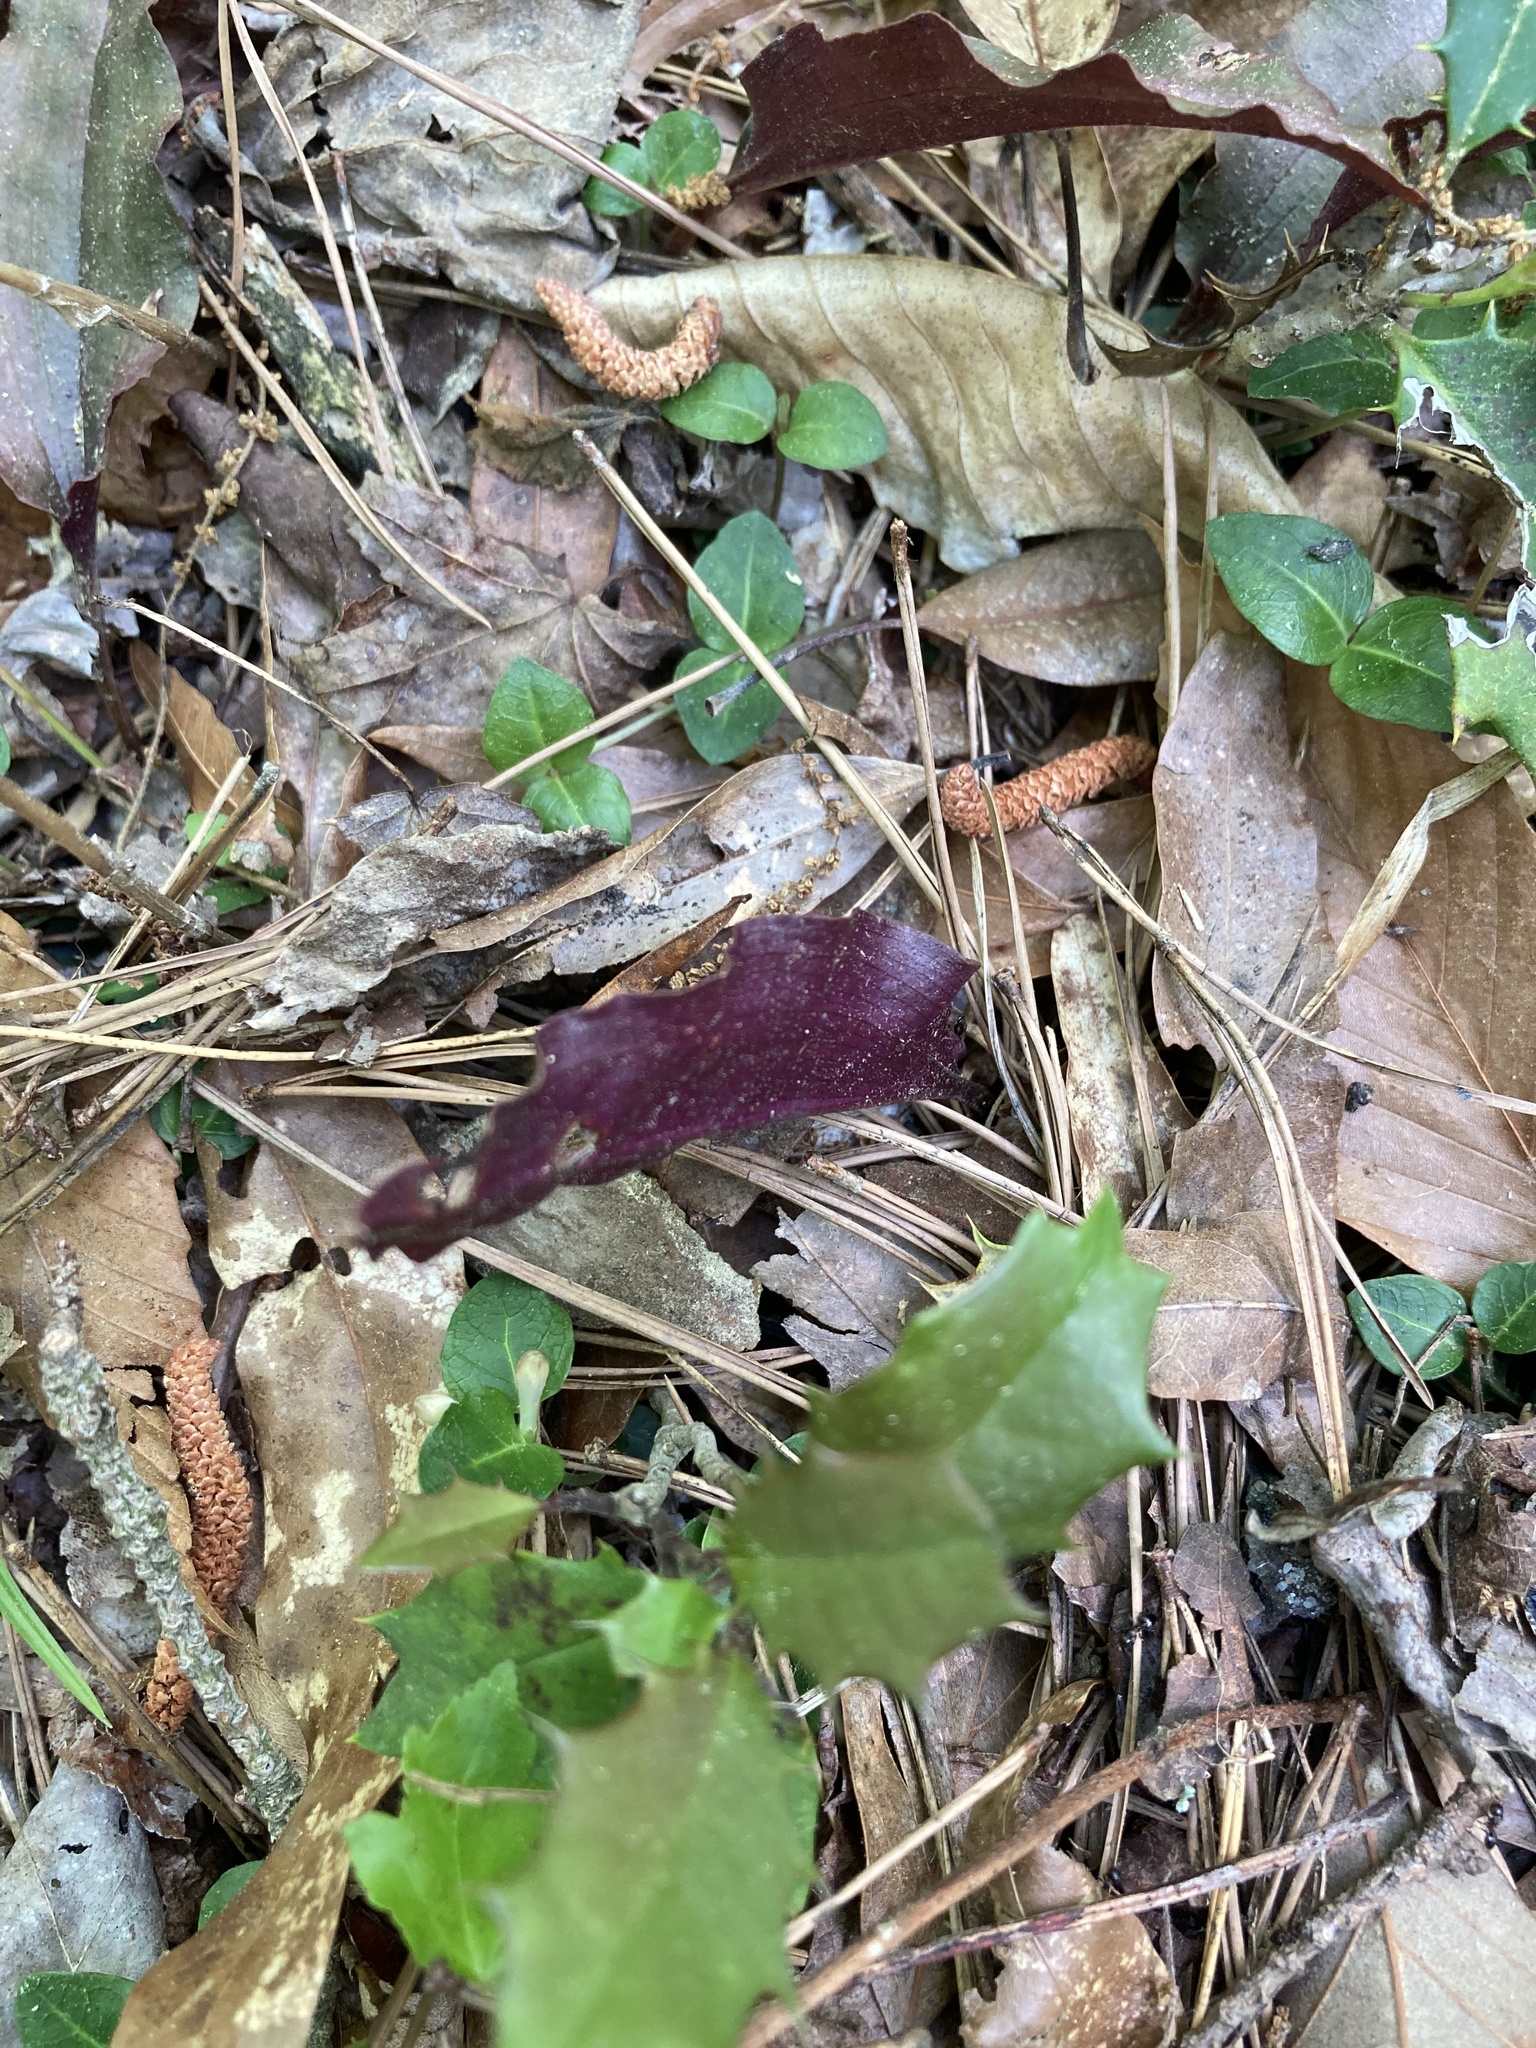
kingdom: Plantae
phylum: Tracheophyta
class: Liliopsida
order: Asparagales
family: Orchidaceae
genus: Tipularia
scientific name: Tipularia discolor
